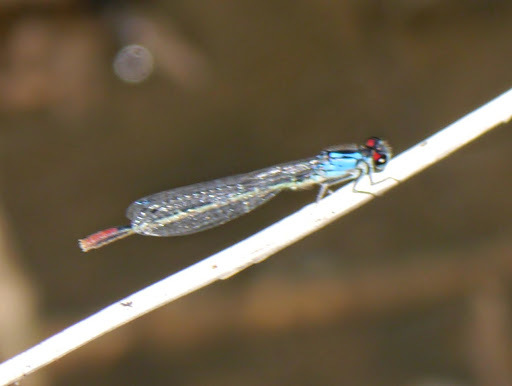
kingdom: Animalia
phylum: Arthropoda
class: Insecta
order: Odonata
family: Coenagrionidae
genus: Hesperagrion
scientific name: Hesperagrion heterodoxum
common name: Painted damsel
